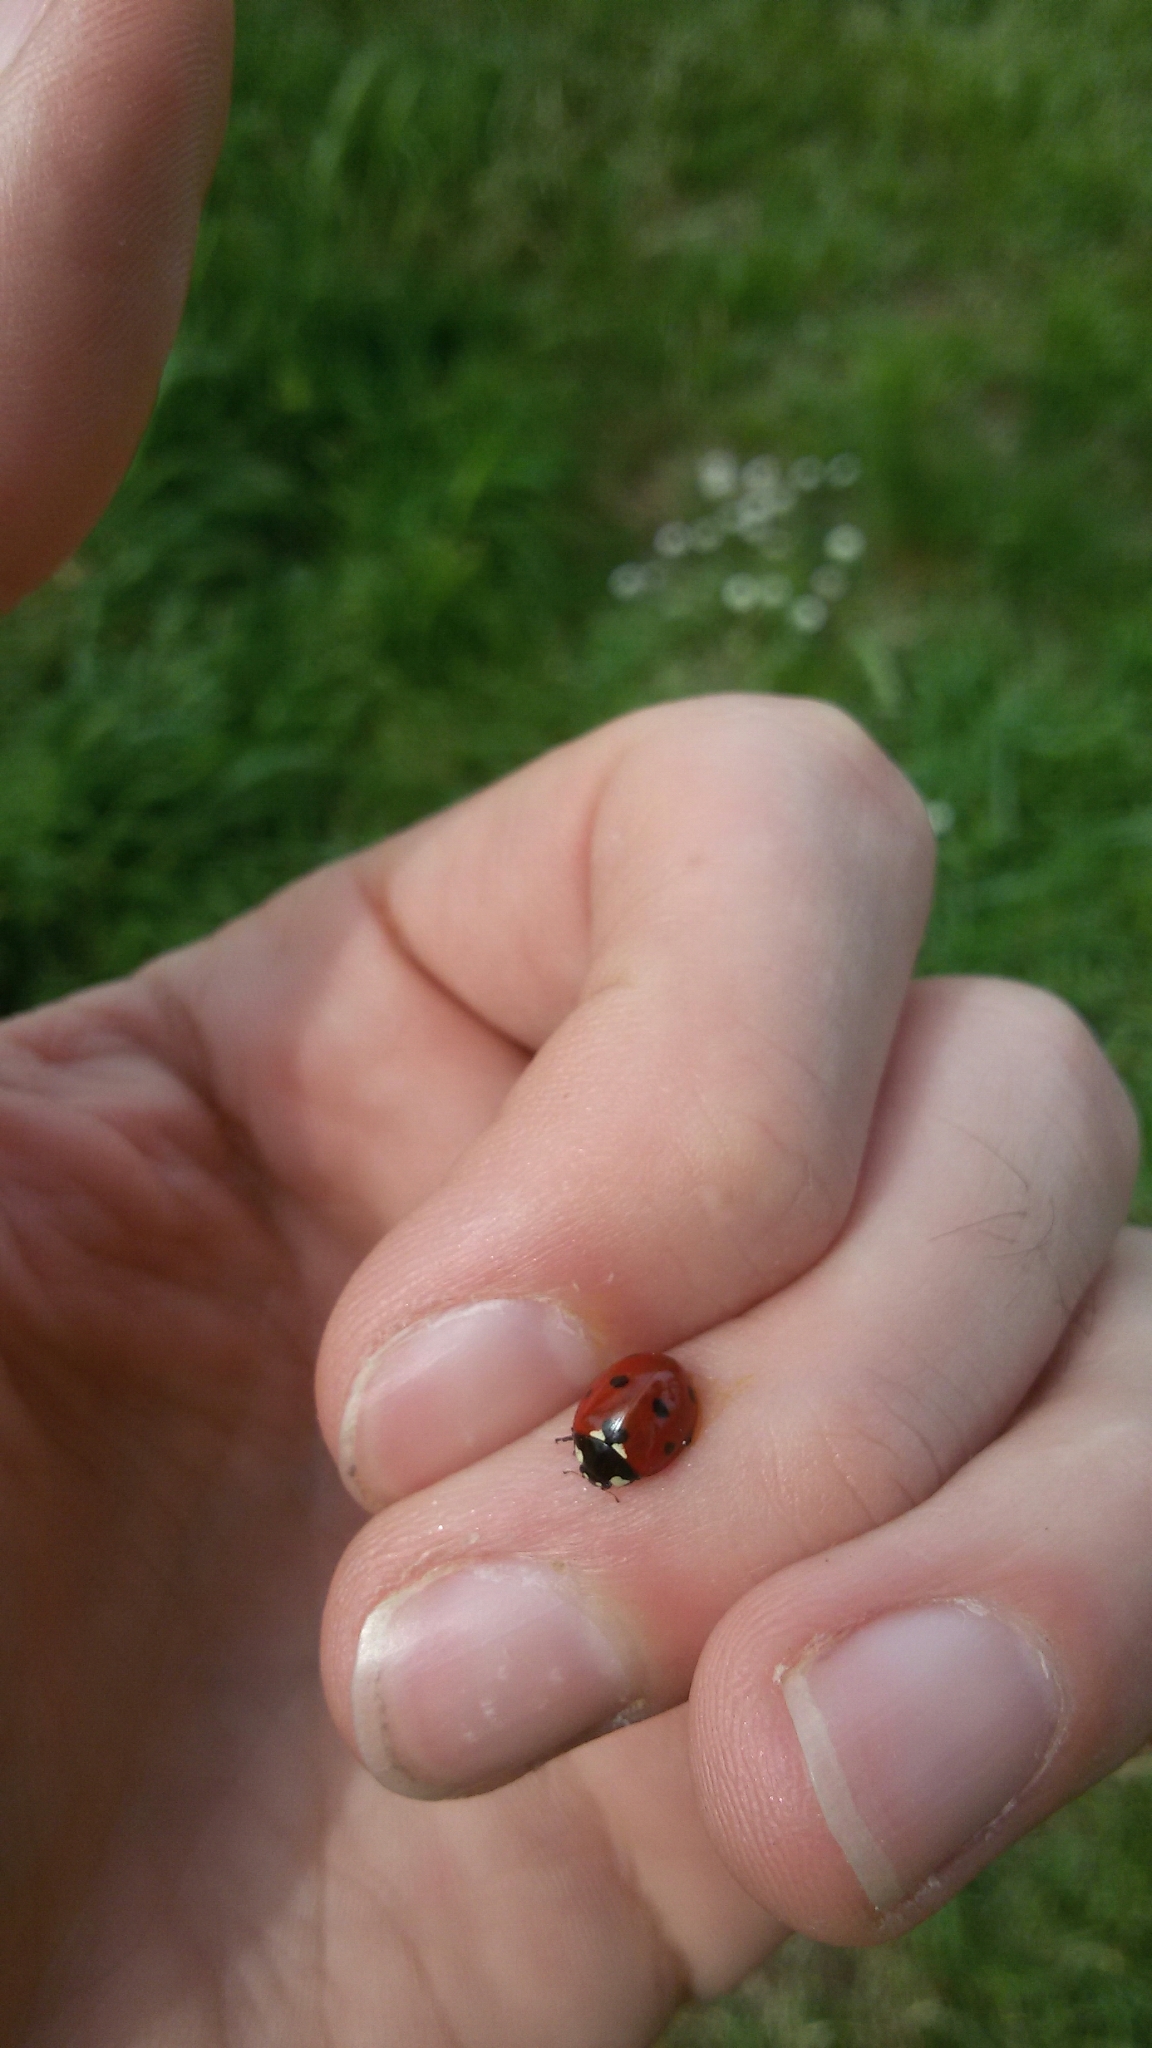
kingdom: Animalia
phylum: Arthropoda
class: Insecta
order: Coleoptera
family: Coccinellidae
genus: Coccinella
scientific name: Coccinella septempunctata
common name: Sevenspotted lady beetle
